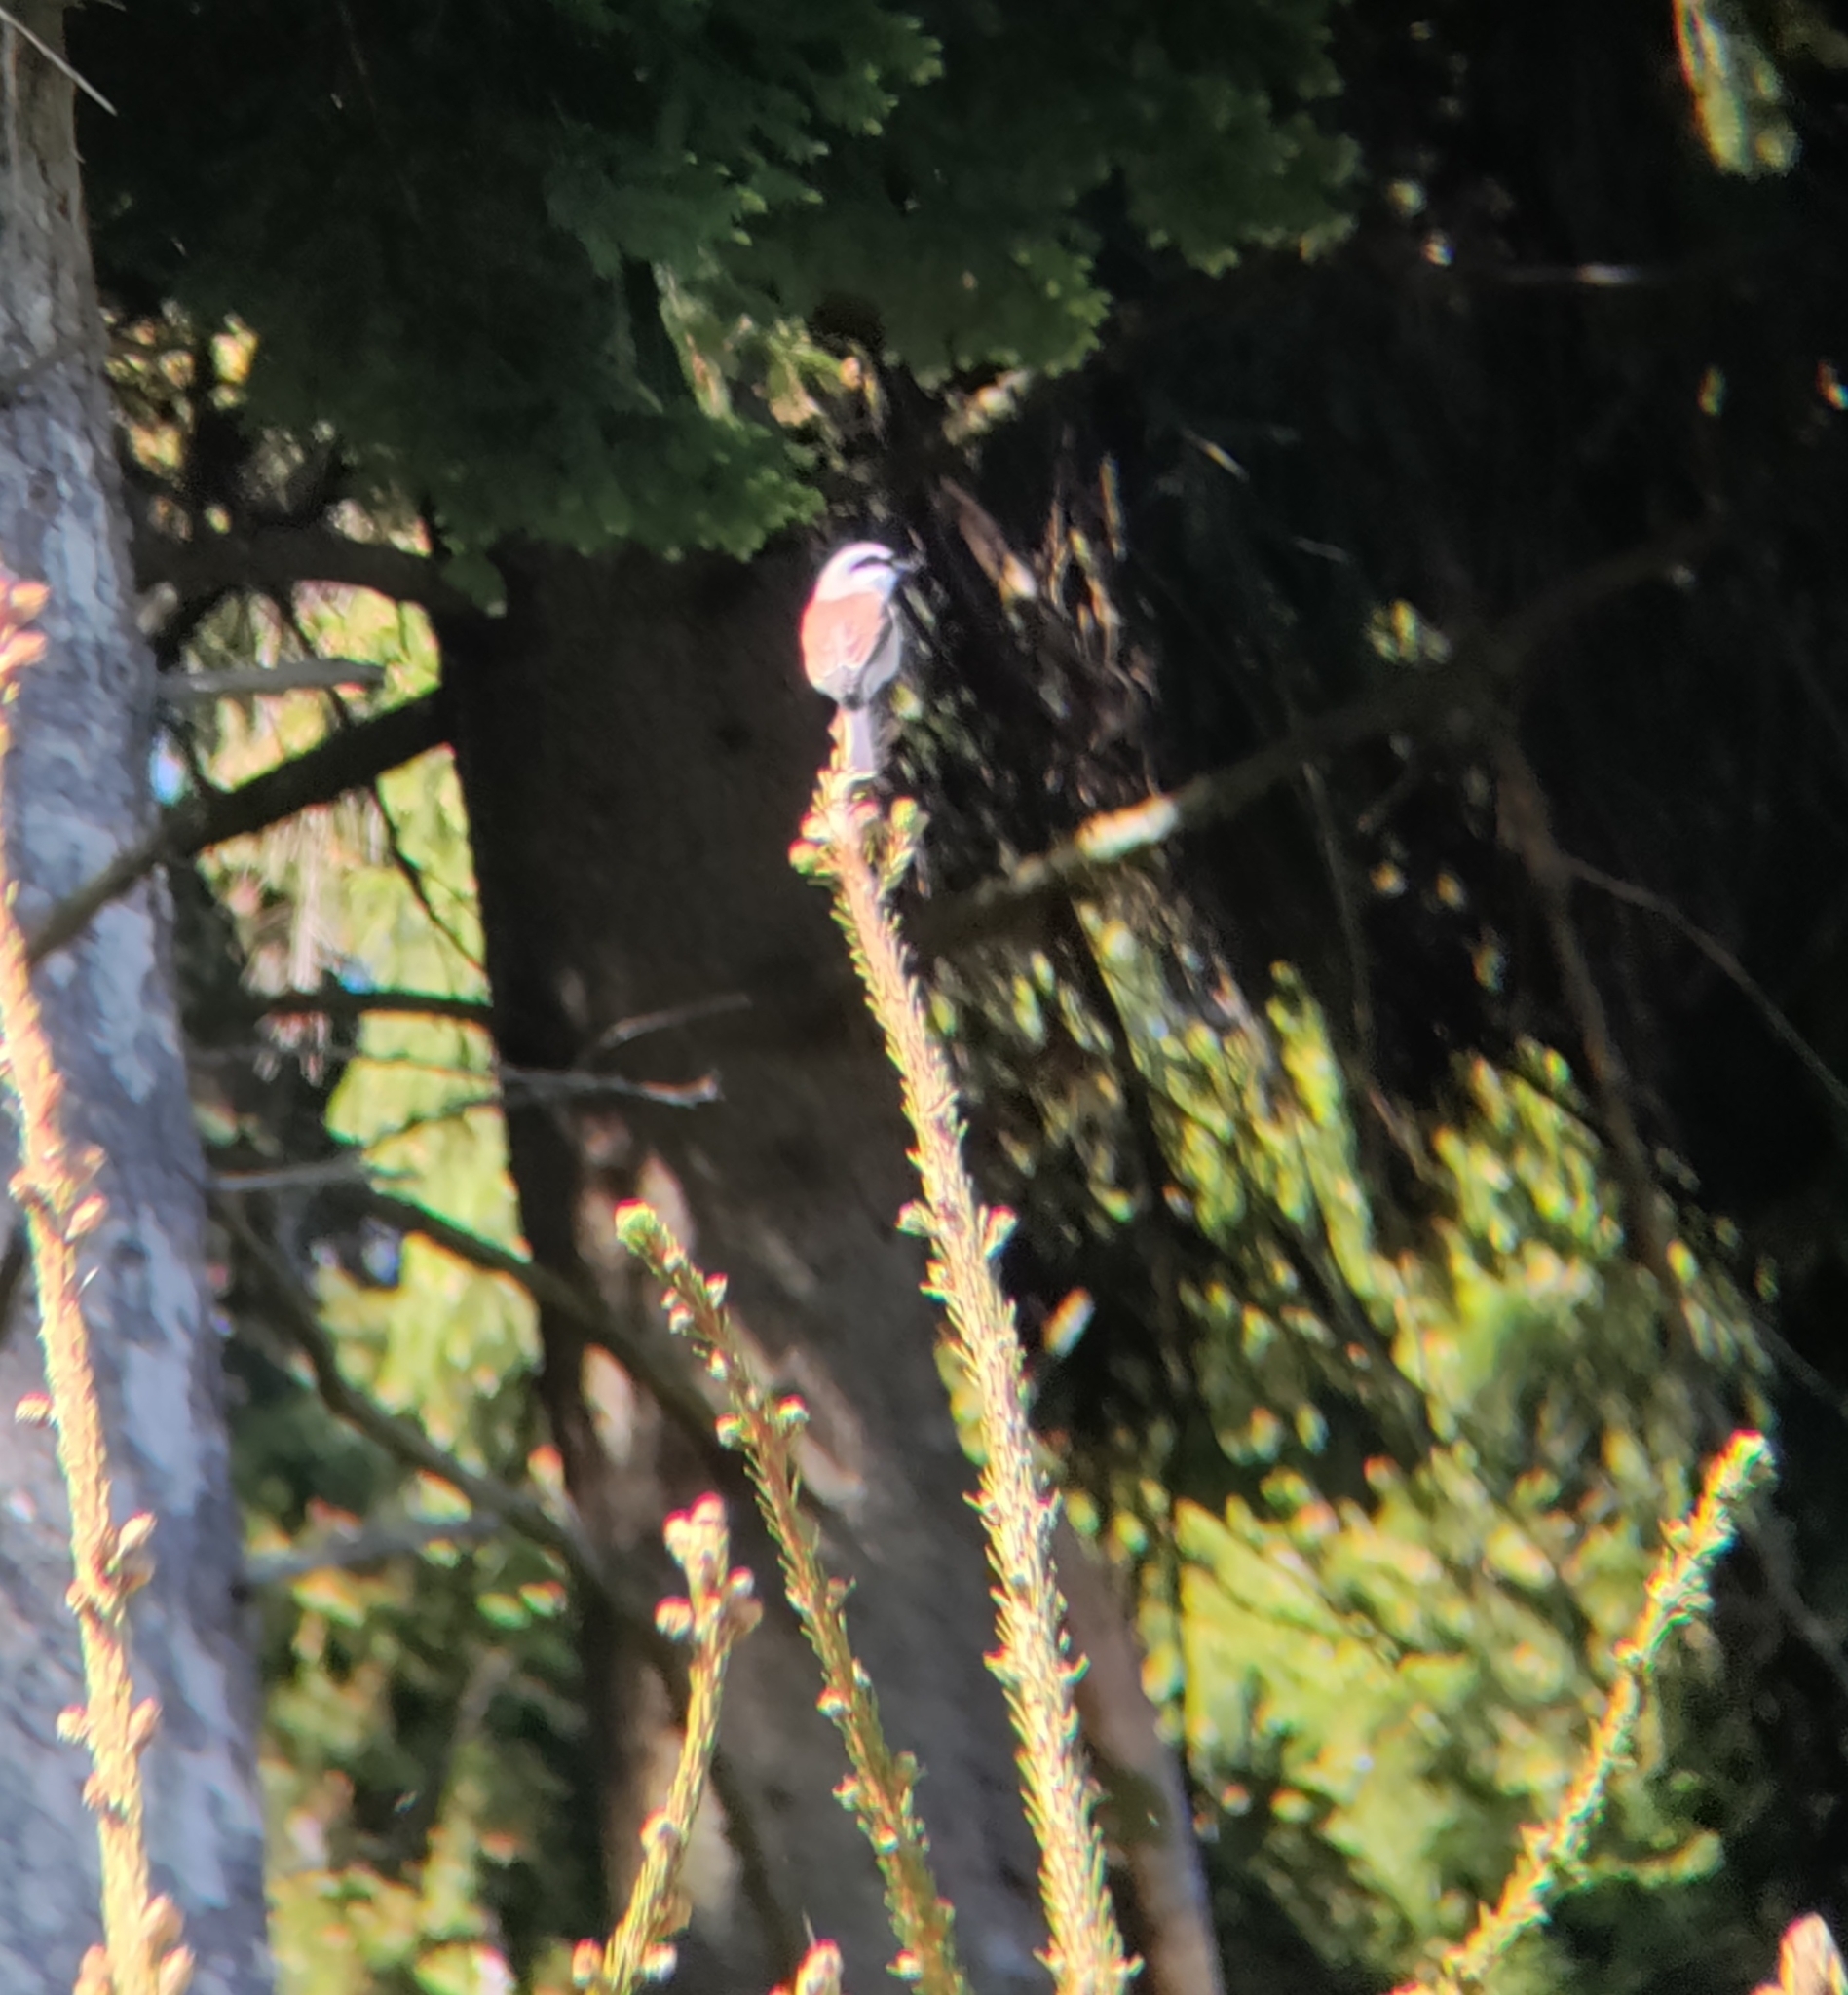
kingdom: Animalia
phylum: Chordata
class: Aves
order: Passeriformes
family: Laniidae
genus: Lanius
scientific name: Lanius collurio
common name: Red-backed shrike
